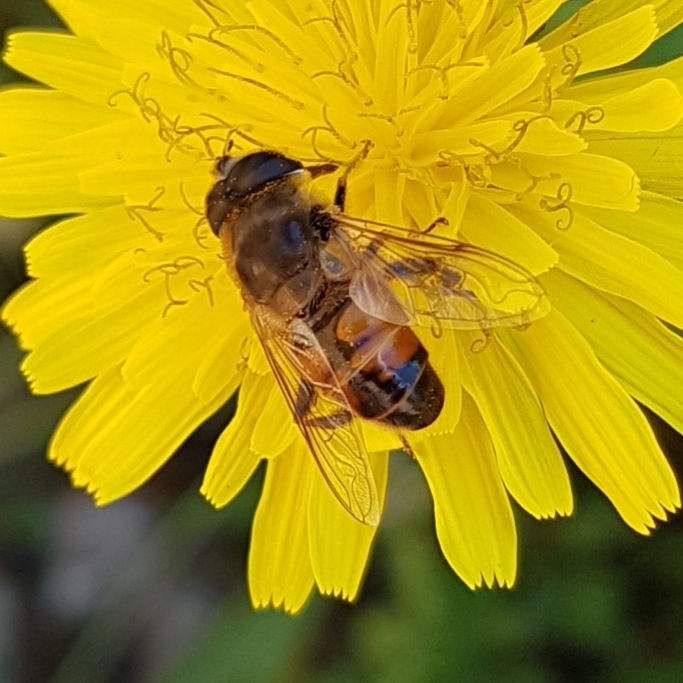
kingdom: Animalia
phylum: Arthropoda
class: Insecta
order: Diptera
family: Syrphidae
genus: Eristalis
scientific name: Eristalis tenax
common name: Drone fly
